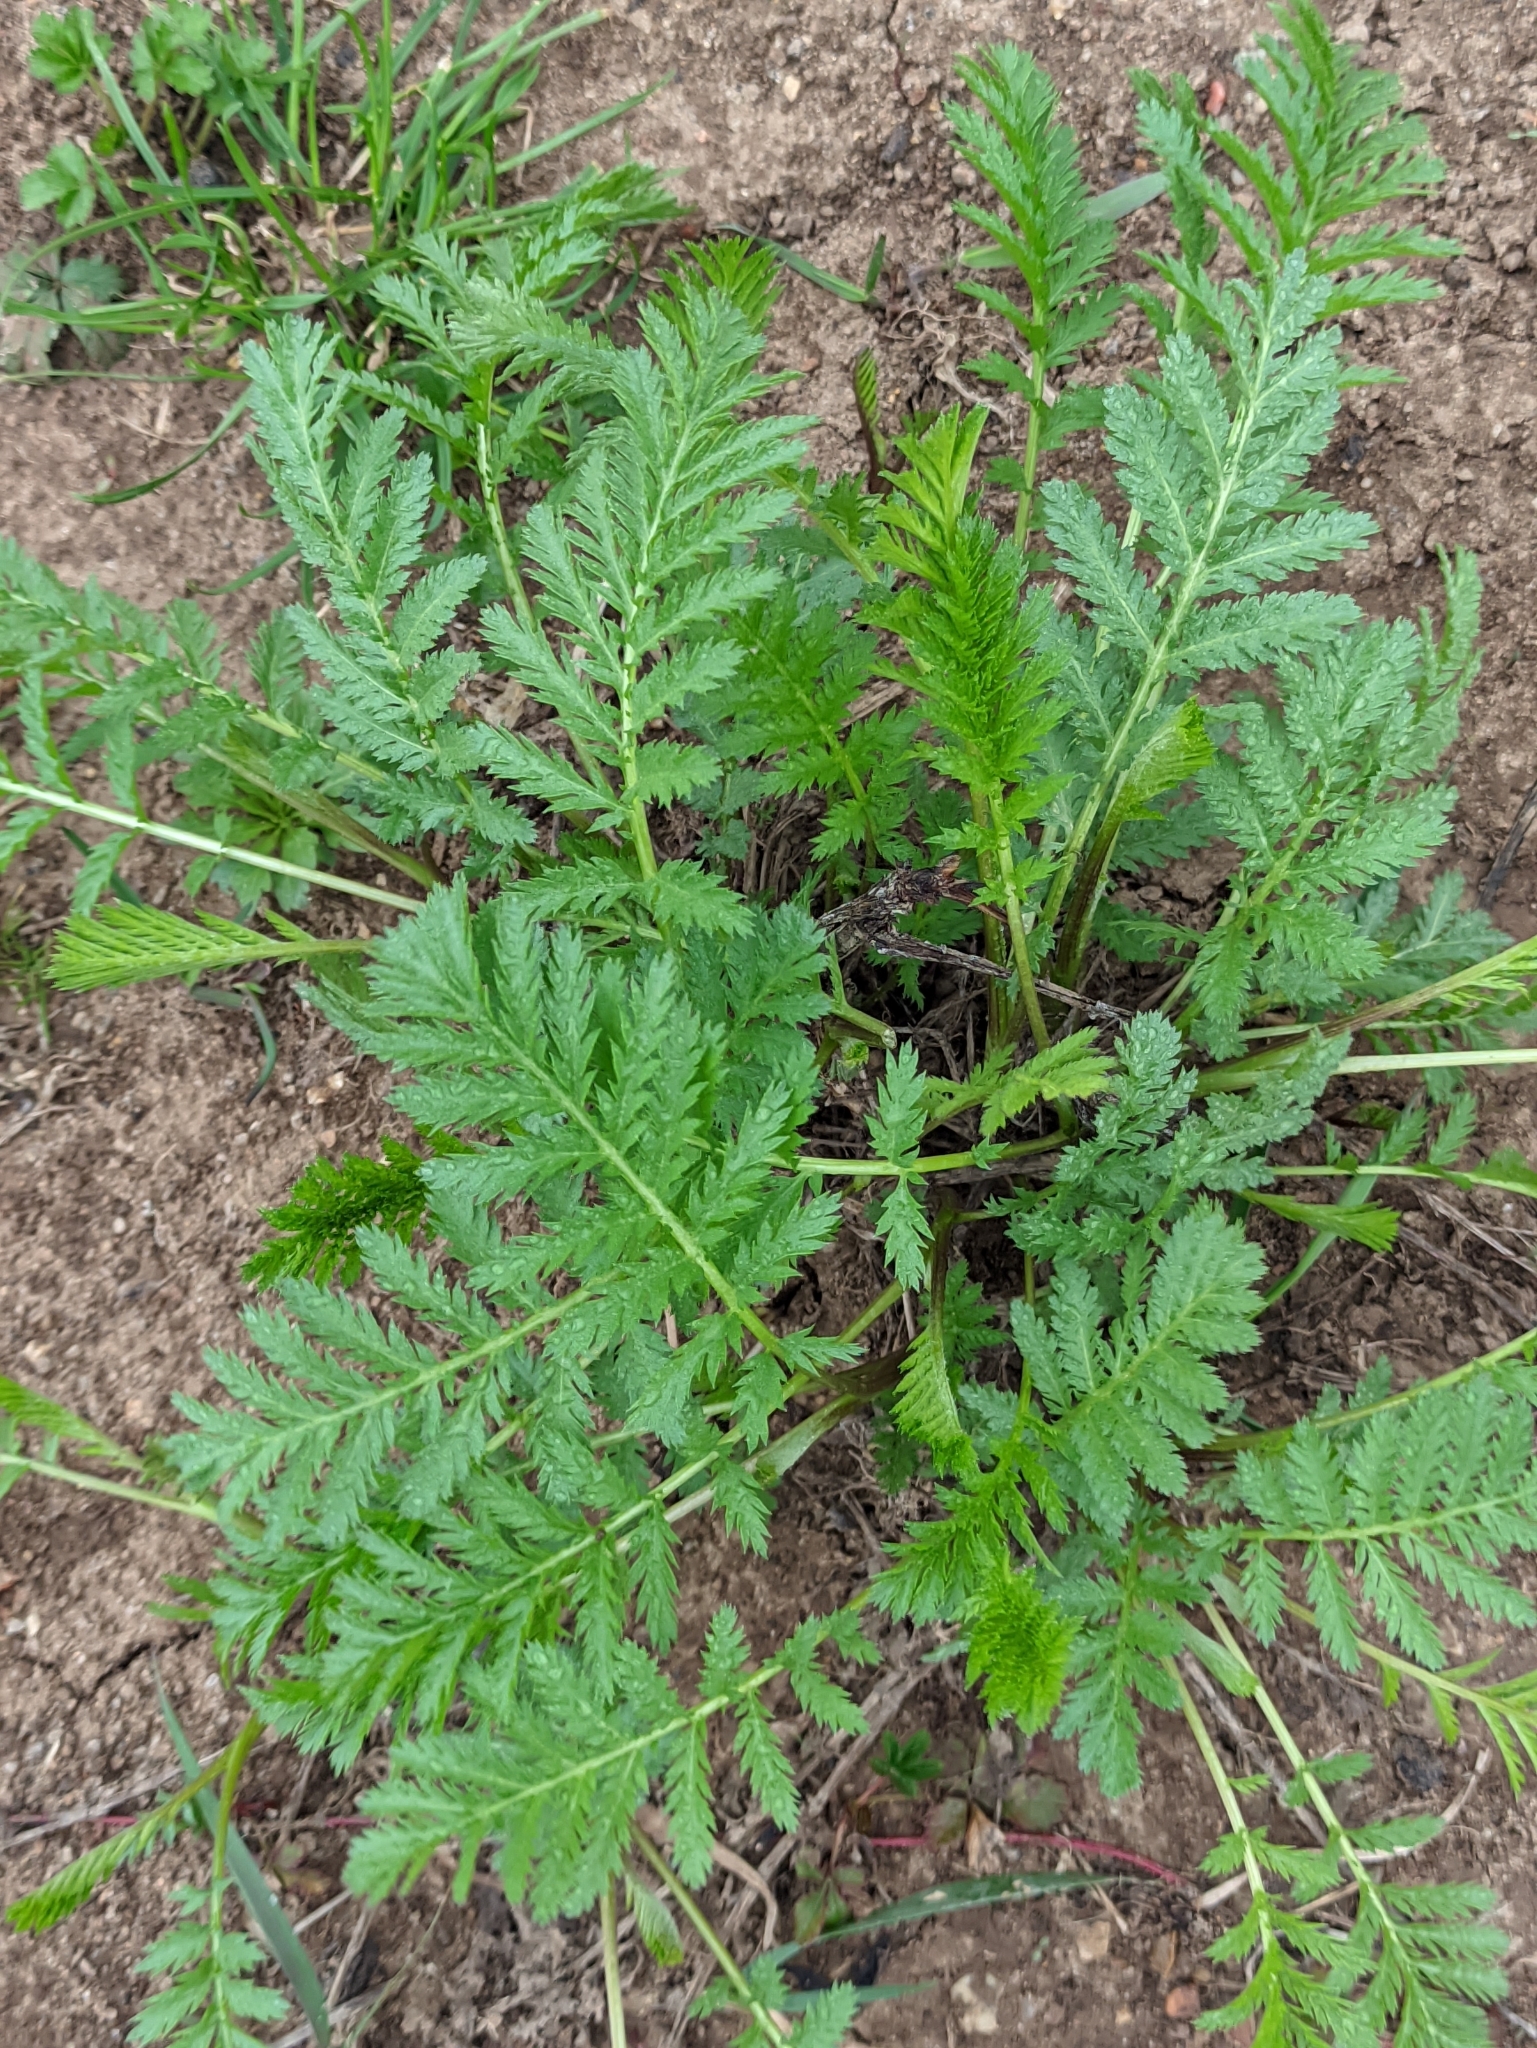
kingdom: Plantae
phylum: Tracheophyta
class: Magnoliopsida
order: Asterales
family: Asteraceae
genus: Tanacetum
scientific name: Tanacetum vulgare
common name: Common tansy
